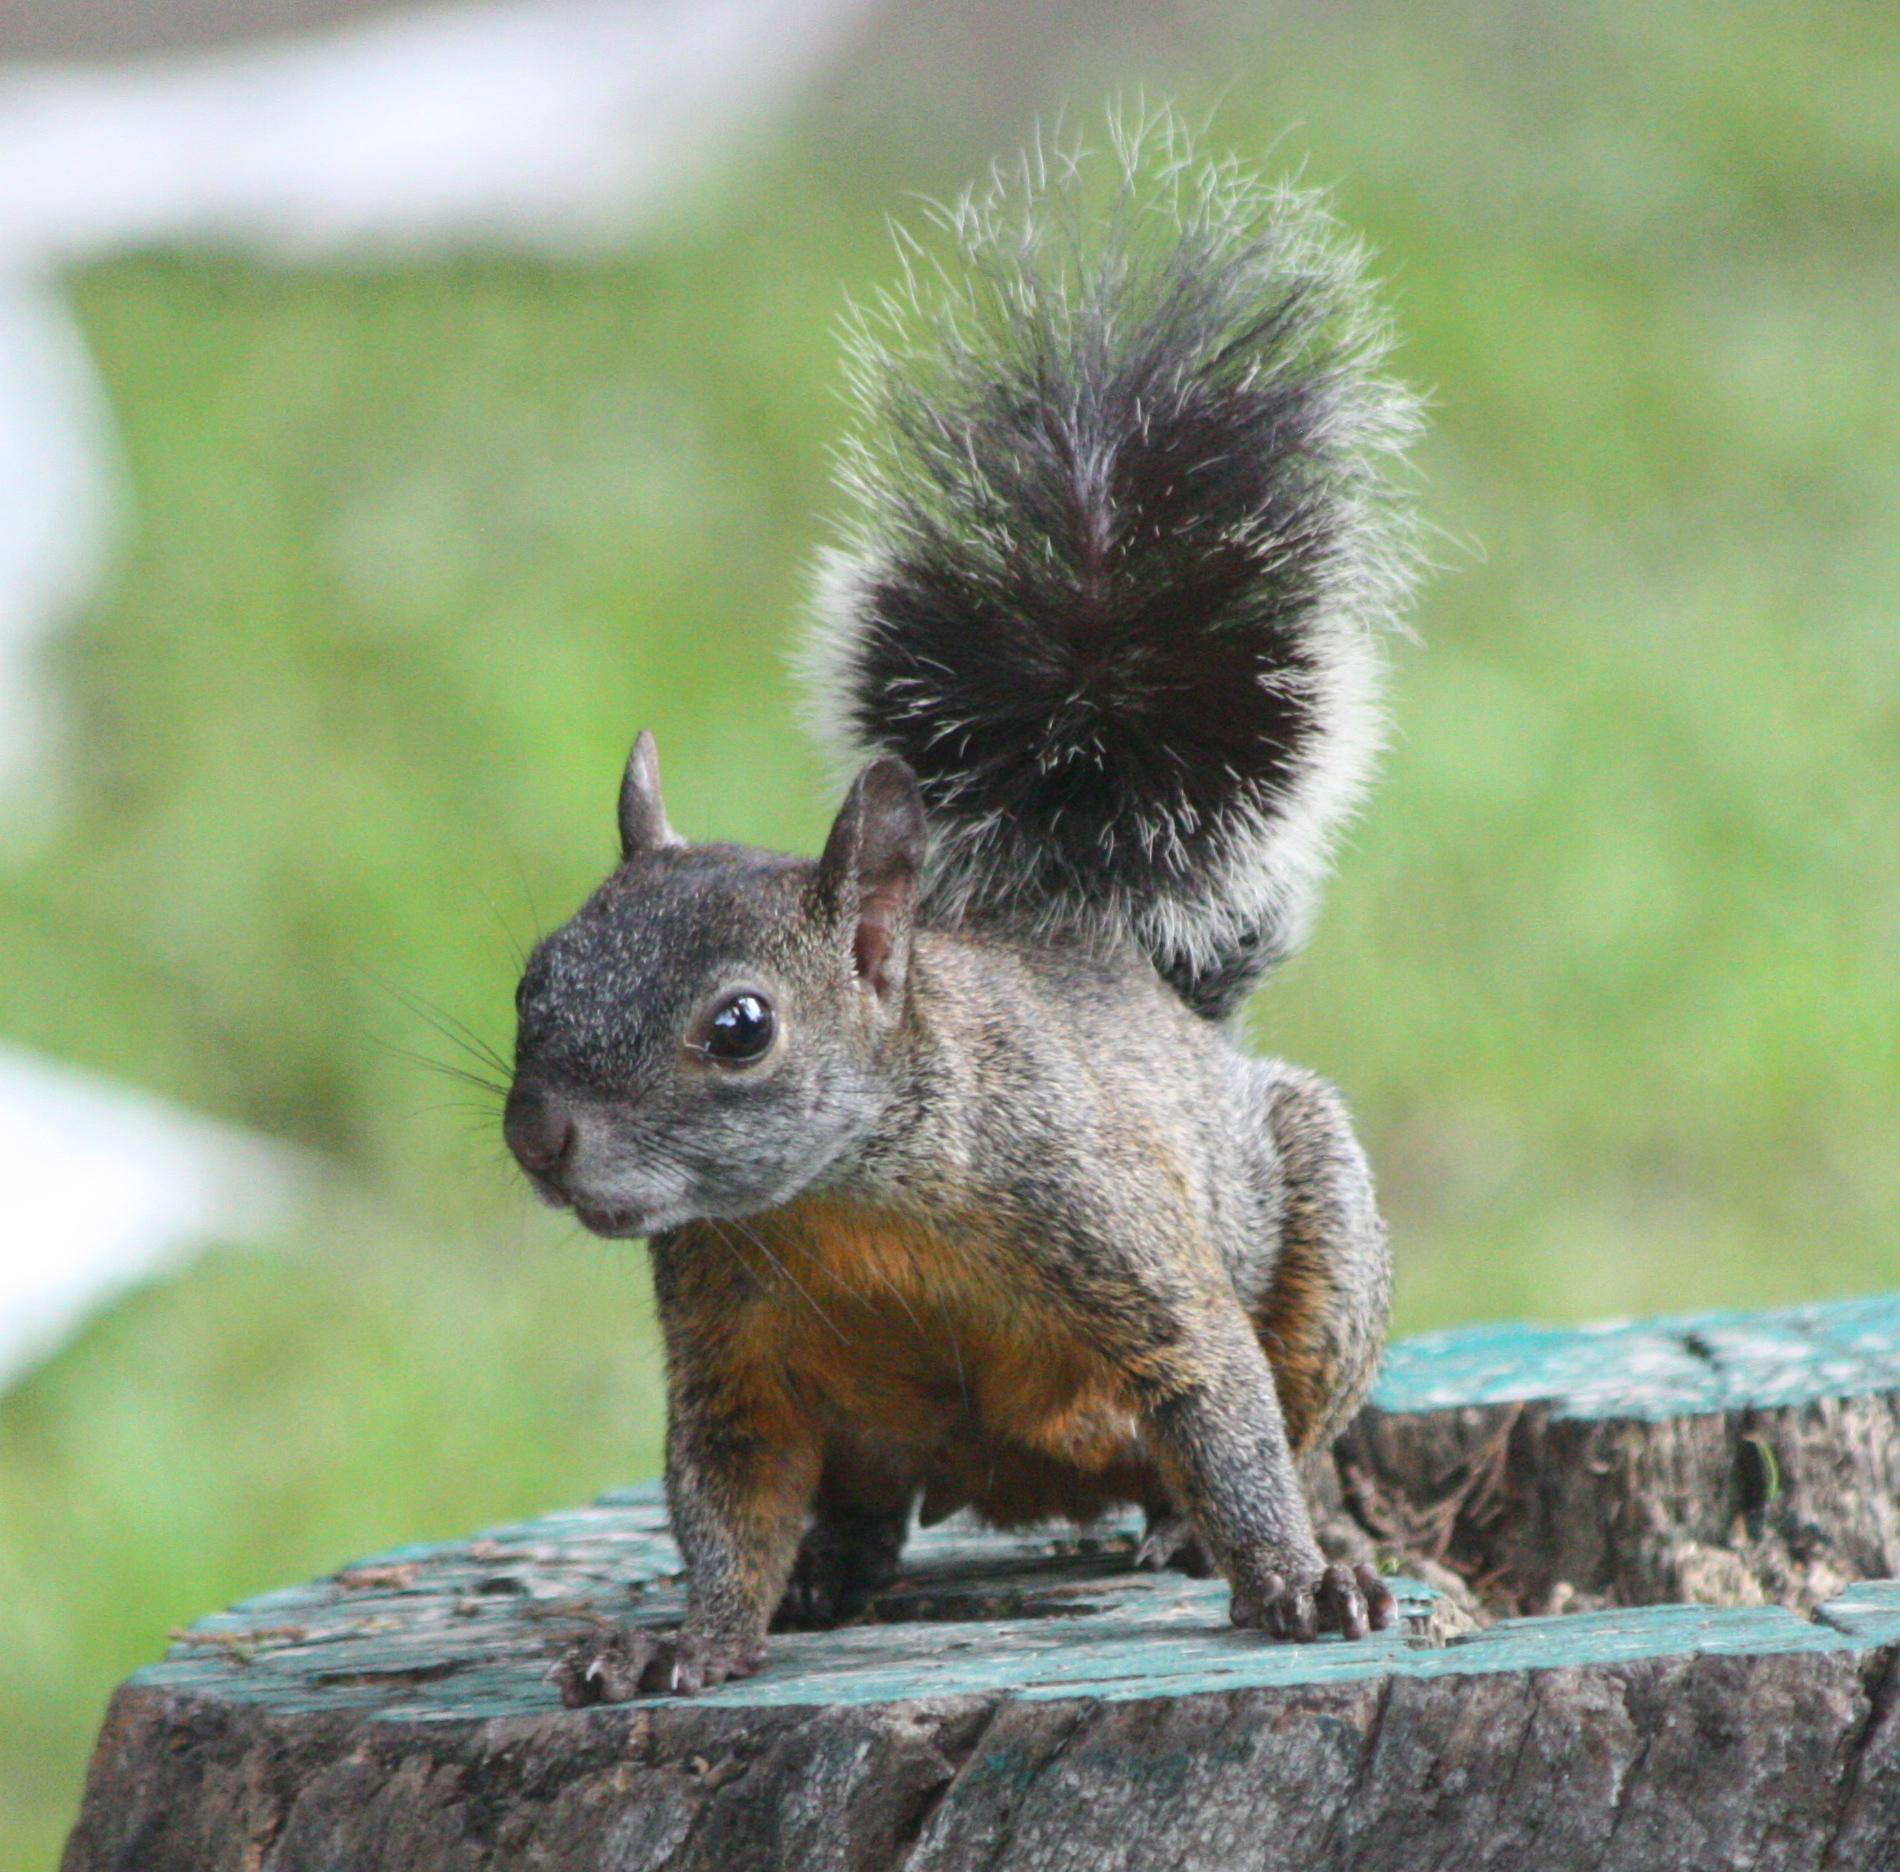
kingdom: Animalia
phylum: Chordata
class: Mammalia
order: Rodentia
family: Sciuridae
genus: Sciurus
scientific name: Sciurus aureogaster
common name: Red-bellied squirrel
